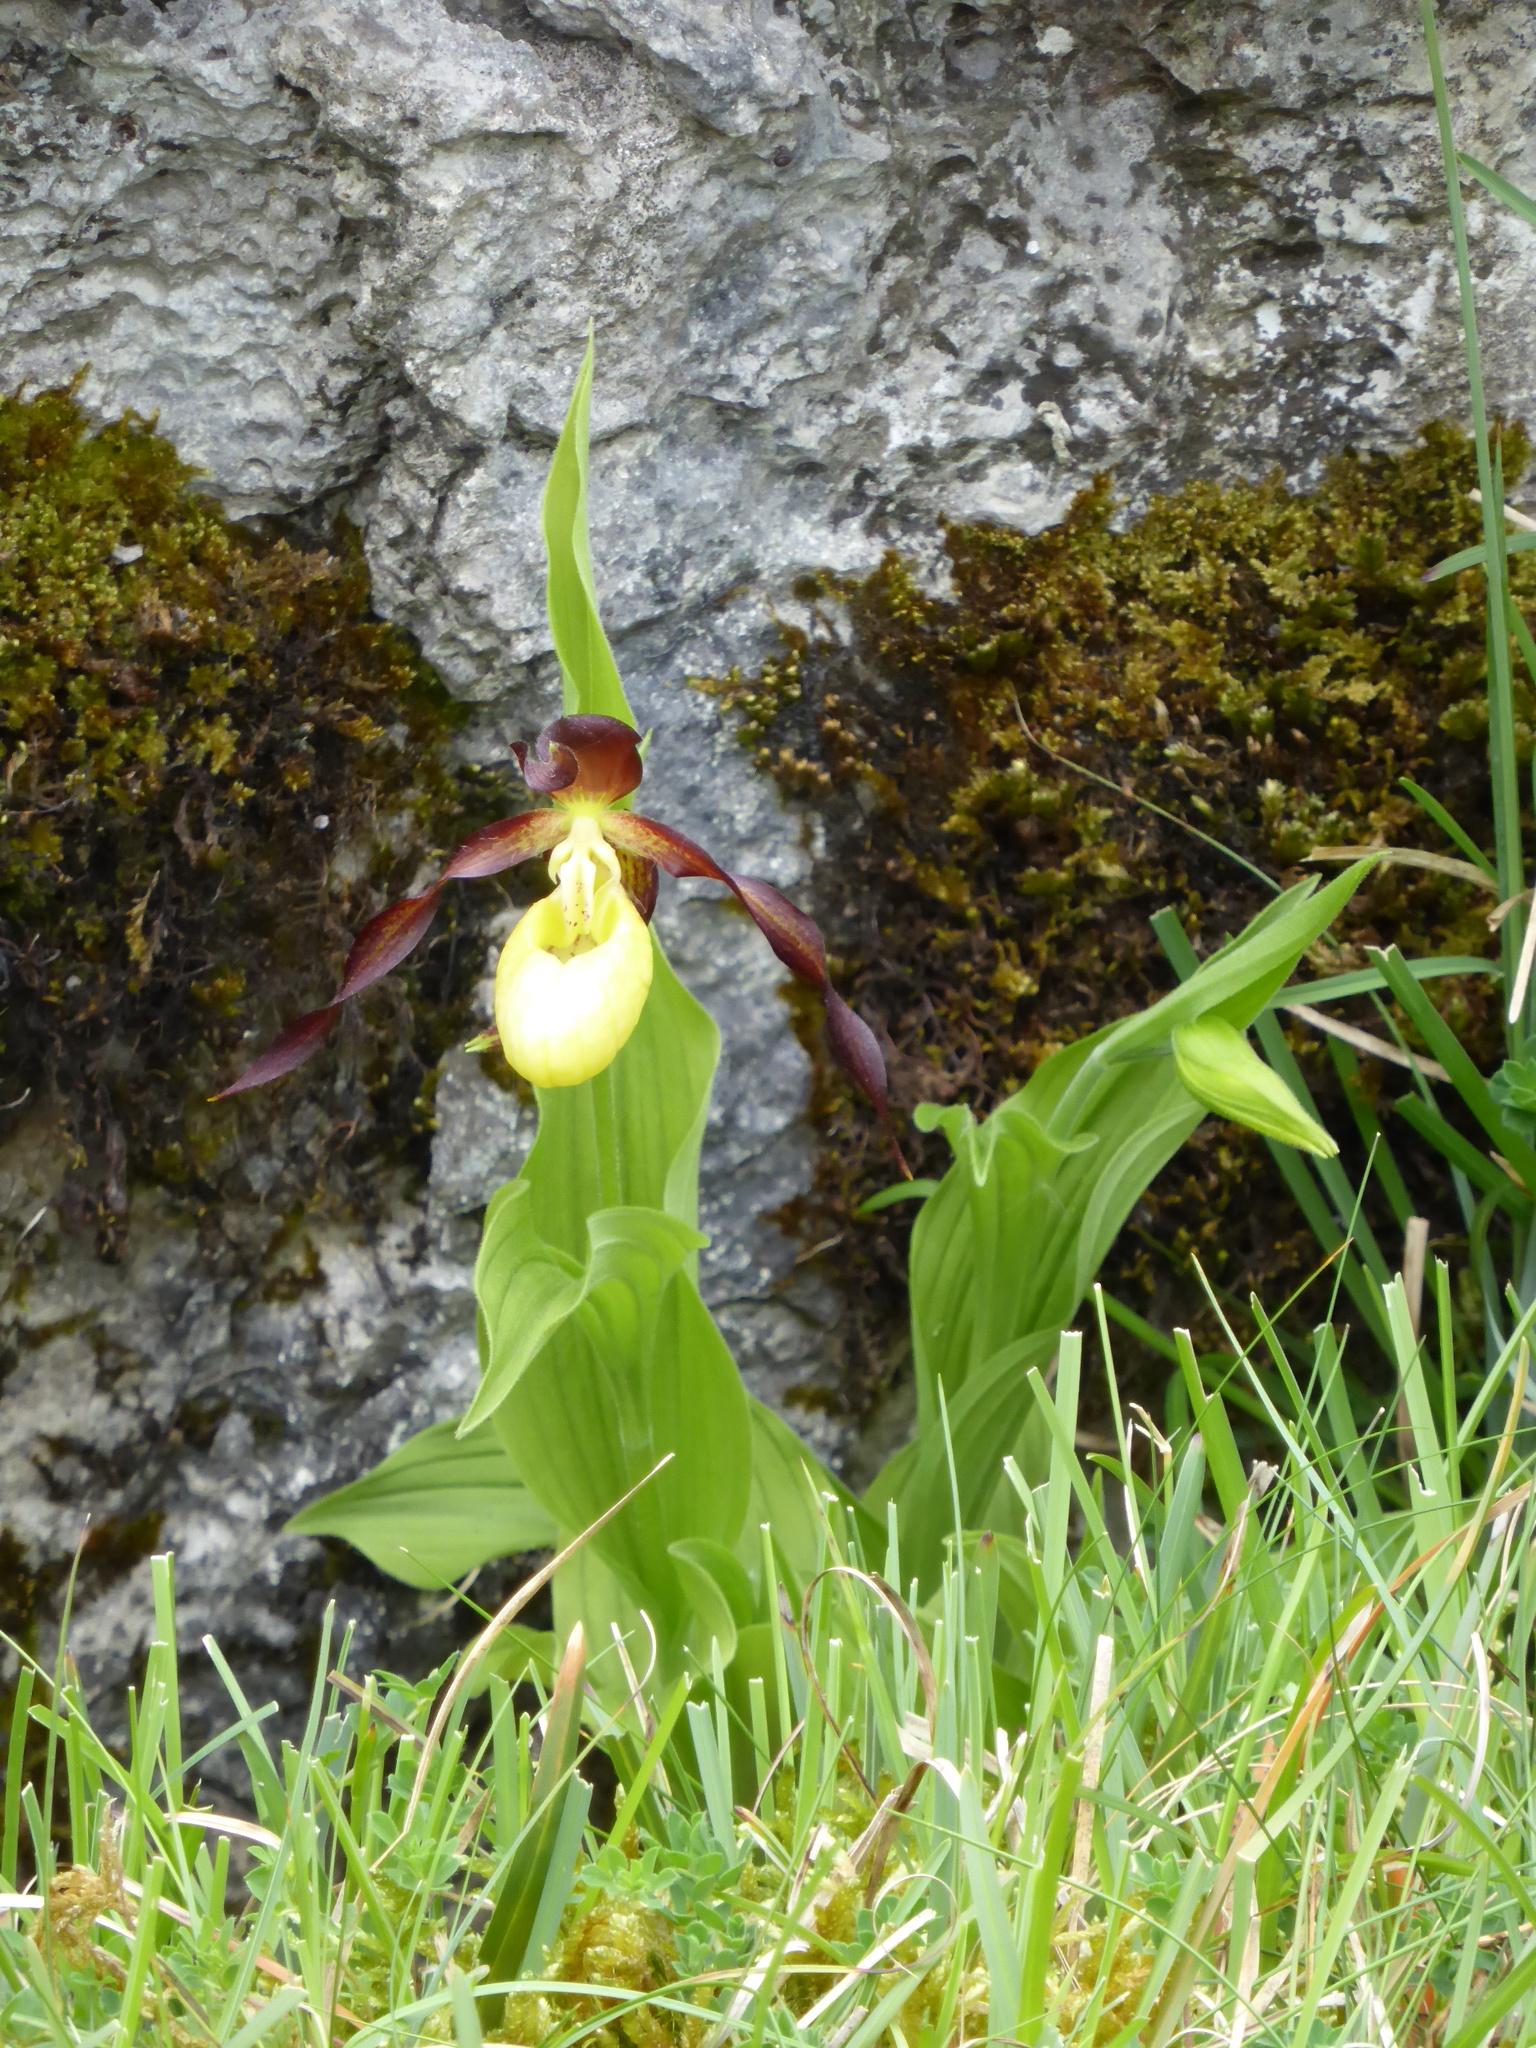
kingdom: Plantae
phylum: Tracheophyta
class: Liliopsida
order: Asparagales
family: Orchidaceae
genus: Cypripedium
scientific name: Cypripedium calceolus
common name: Lady's-slipper
